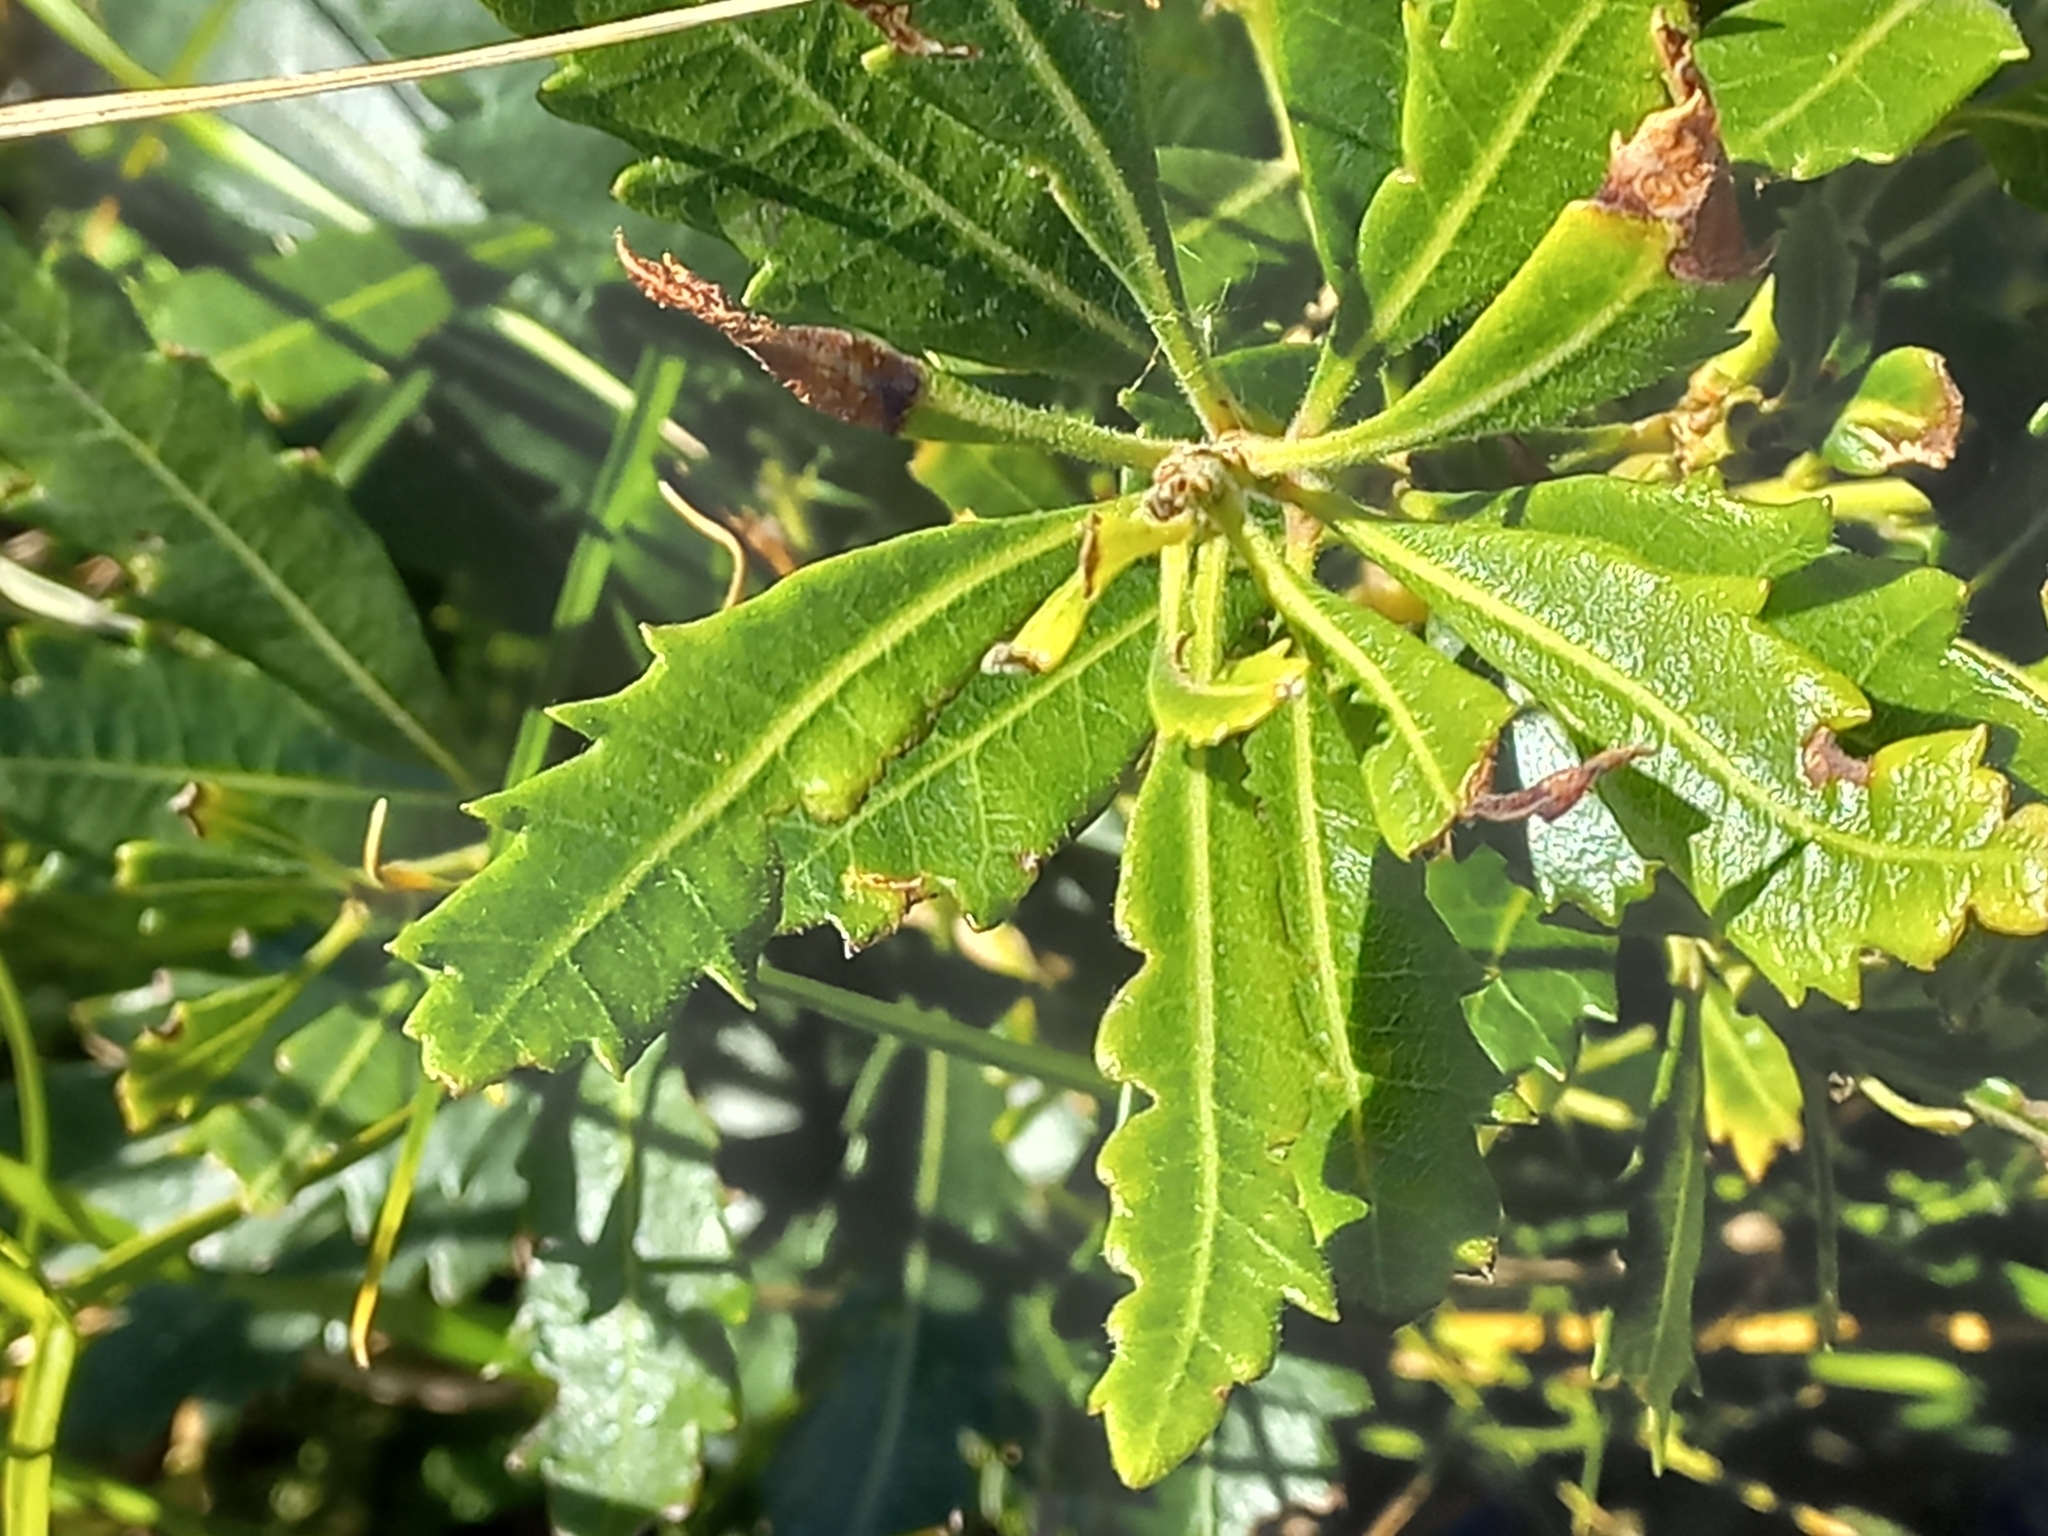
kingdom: Plantae
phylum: Tracheophyta
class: Magnoliopsida
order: Fagales
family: Myricaceae
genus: Morella
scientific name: Morella serrata
